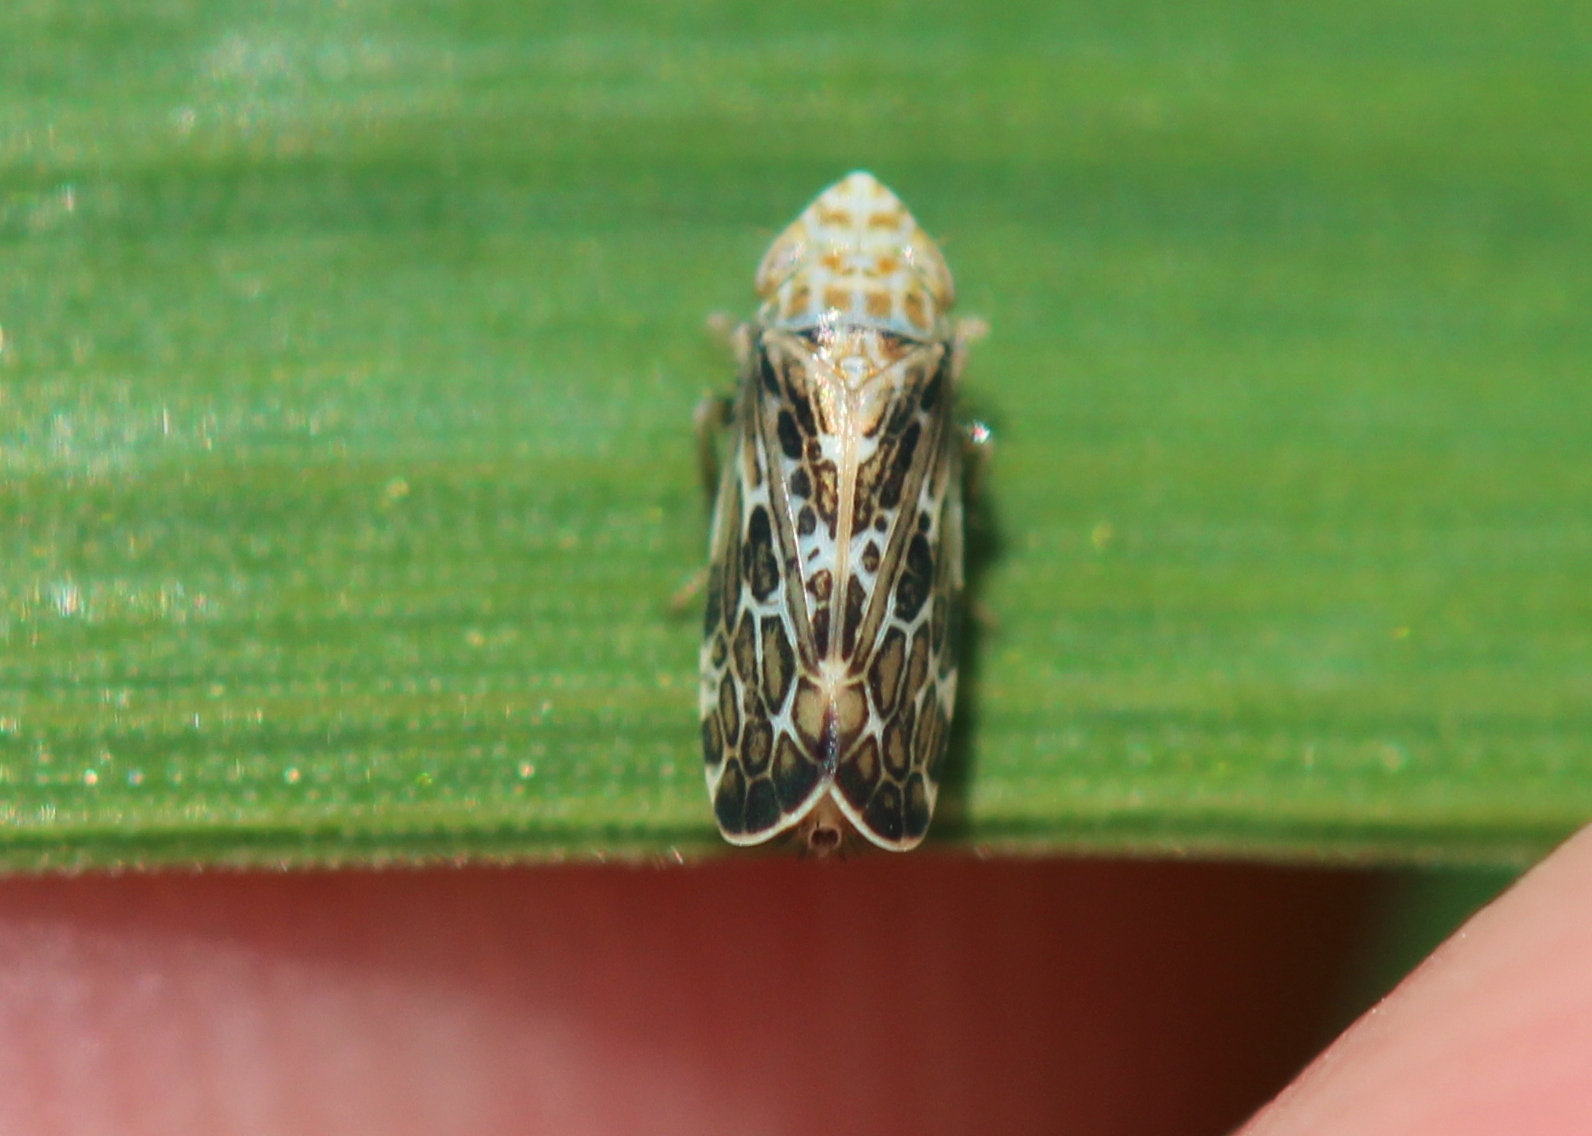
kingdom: Animalia
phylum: Arthropoda
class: Insecta
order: Hemiptera
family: Cicadellidae
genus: Errastunus
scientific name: Errastunus ocellaris
